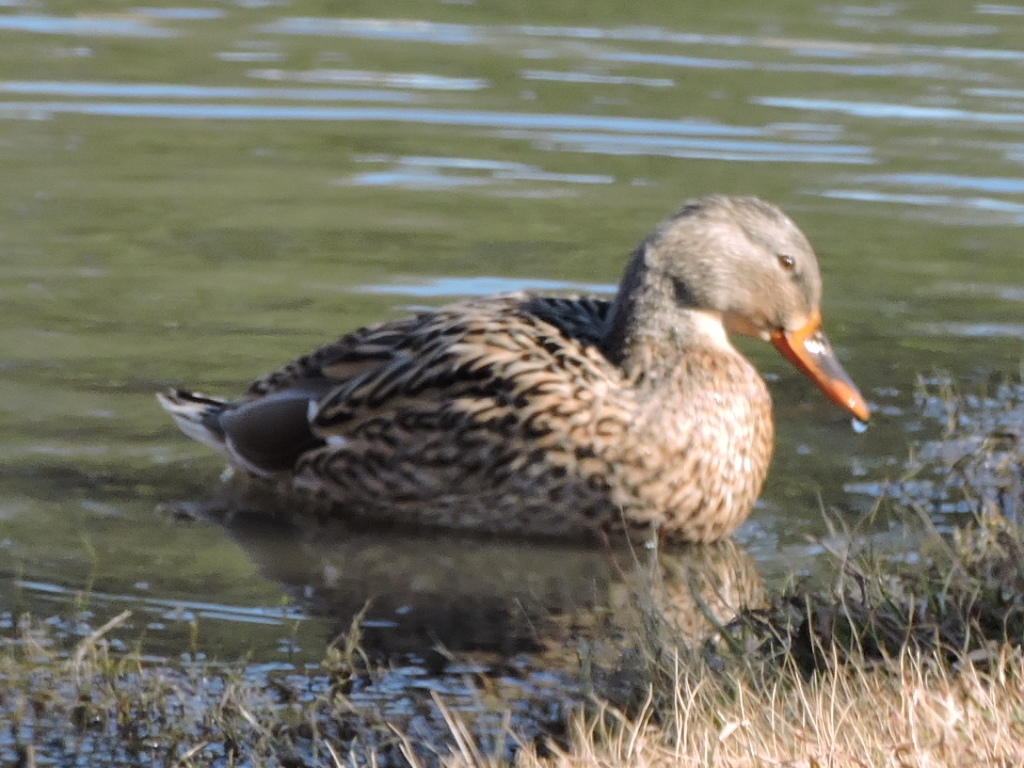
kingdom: Animalia
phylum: Chordata
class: Aves
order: Anseriformes
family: Anatidae
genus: Anas
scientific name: Anas platyrhynchos
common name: Mallard
